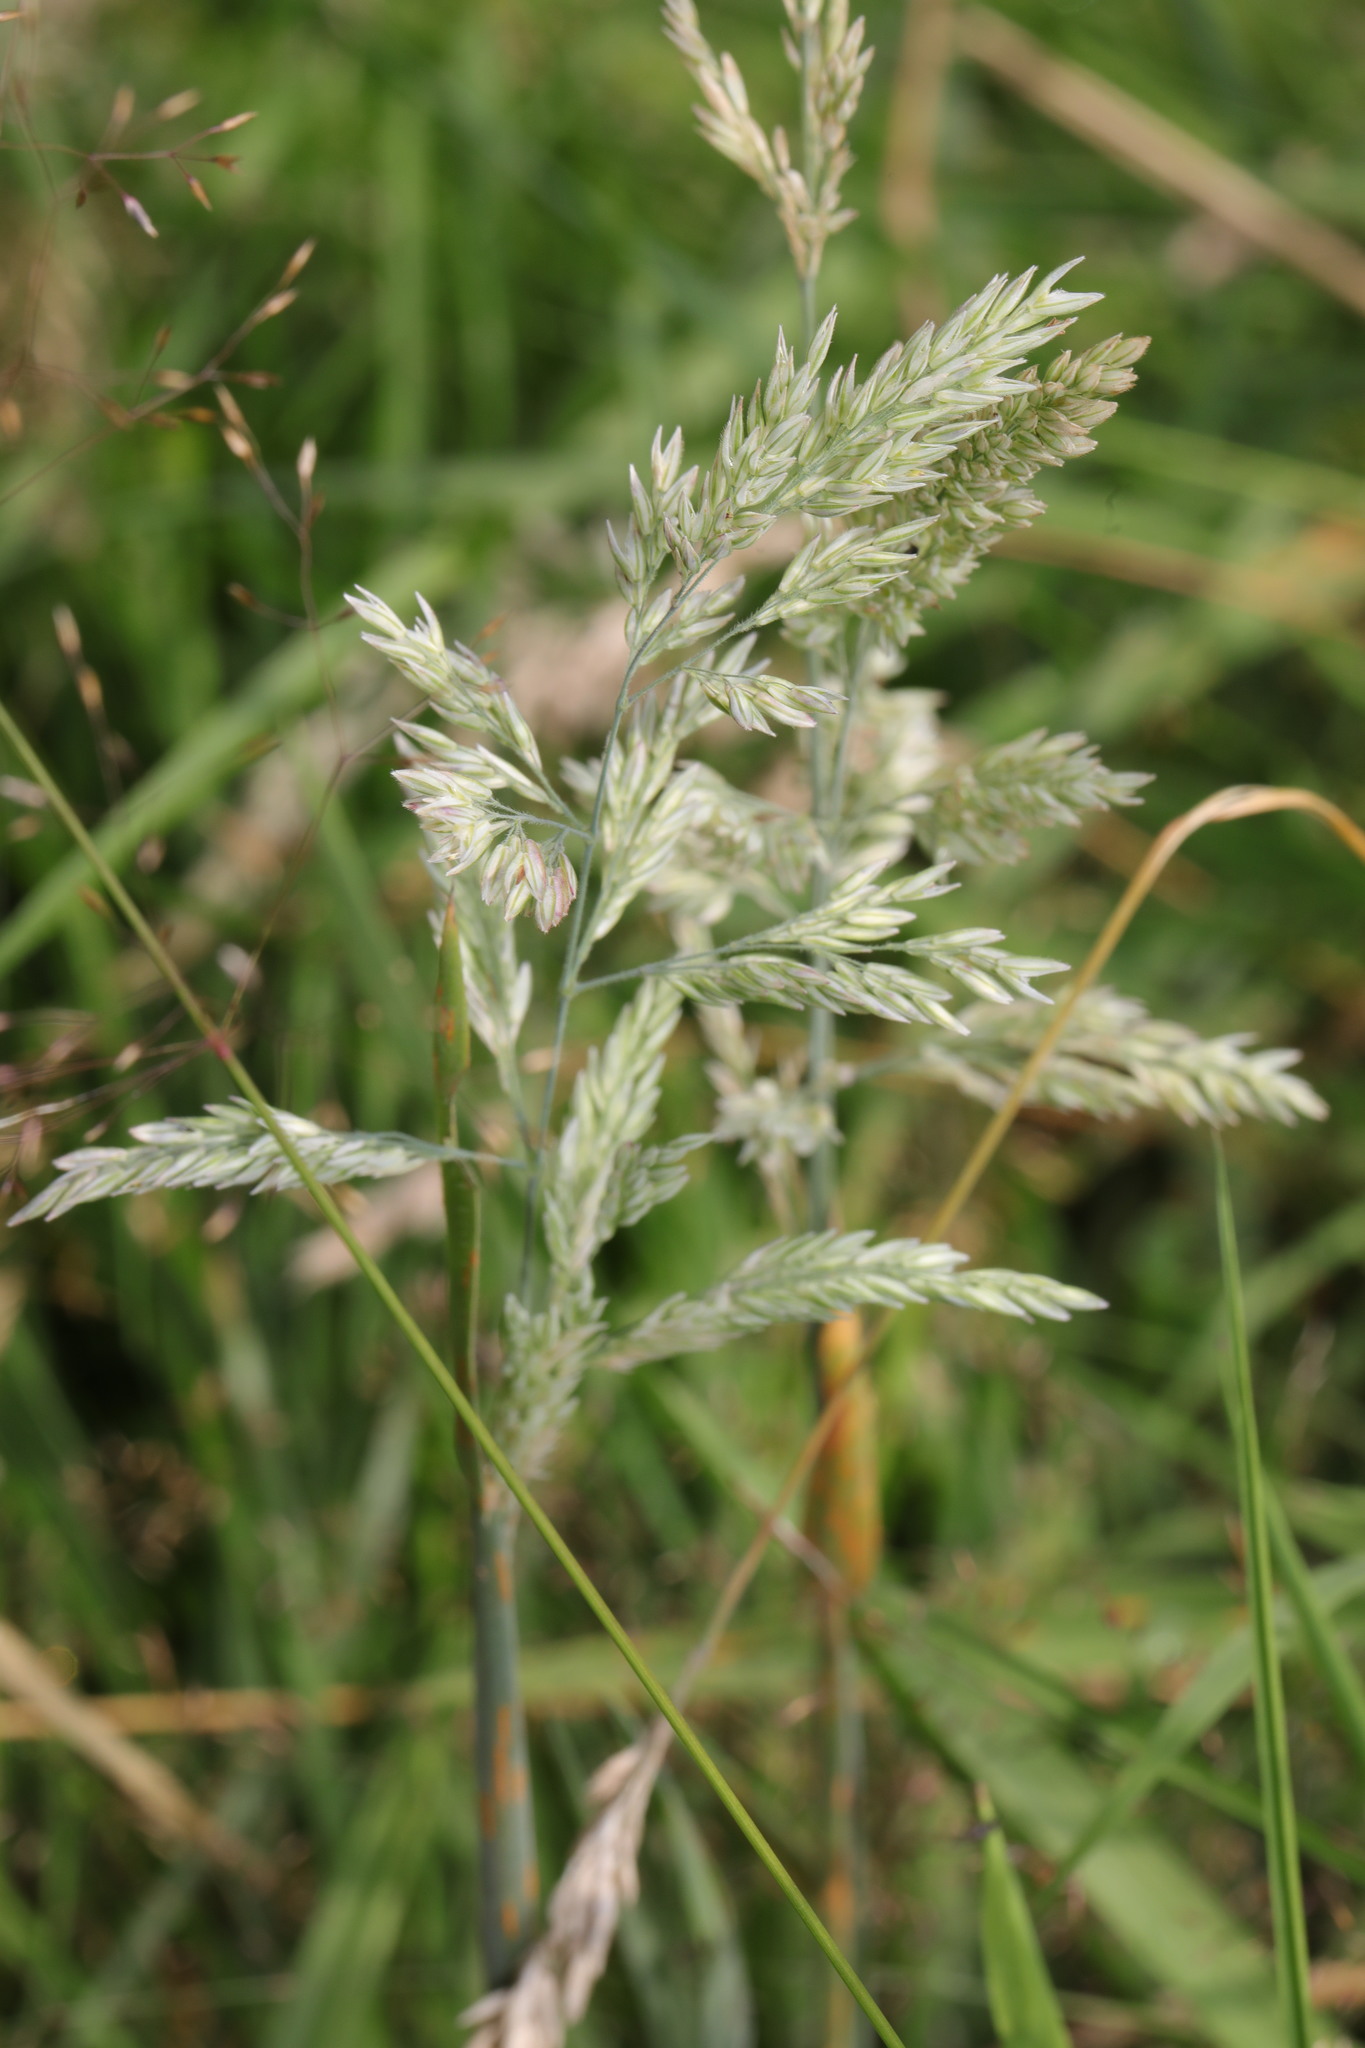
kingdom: Plantae
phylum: Tracheophyta
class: Liliopsida
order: Poales
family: Poaceae
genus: Holcus
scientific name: Holcus lanatus
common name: Yorkshire-fog
